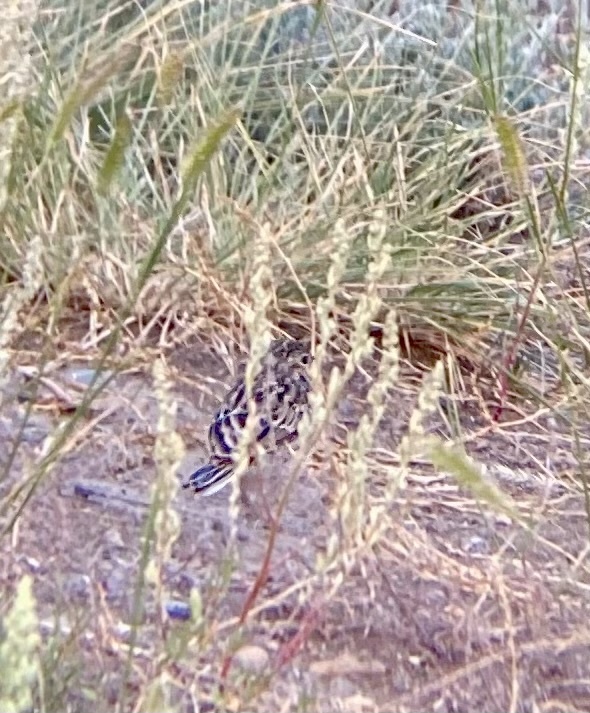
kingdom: Animalia
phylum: Chordata
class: Aves
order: Passeriformes
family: Passerellidae
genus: Chondestes
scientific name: Chondestes grammacus
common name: Lark sparrow
